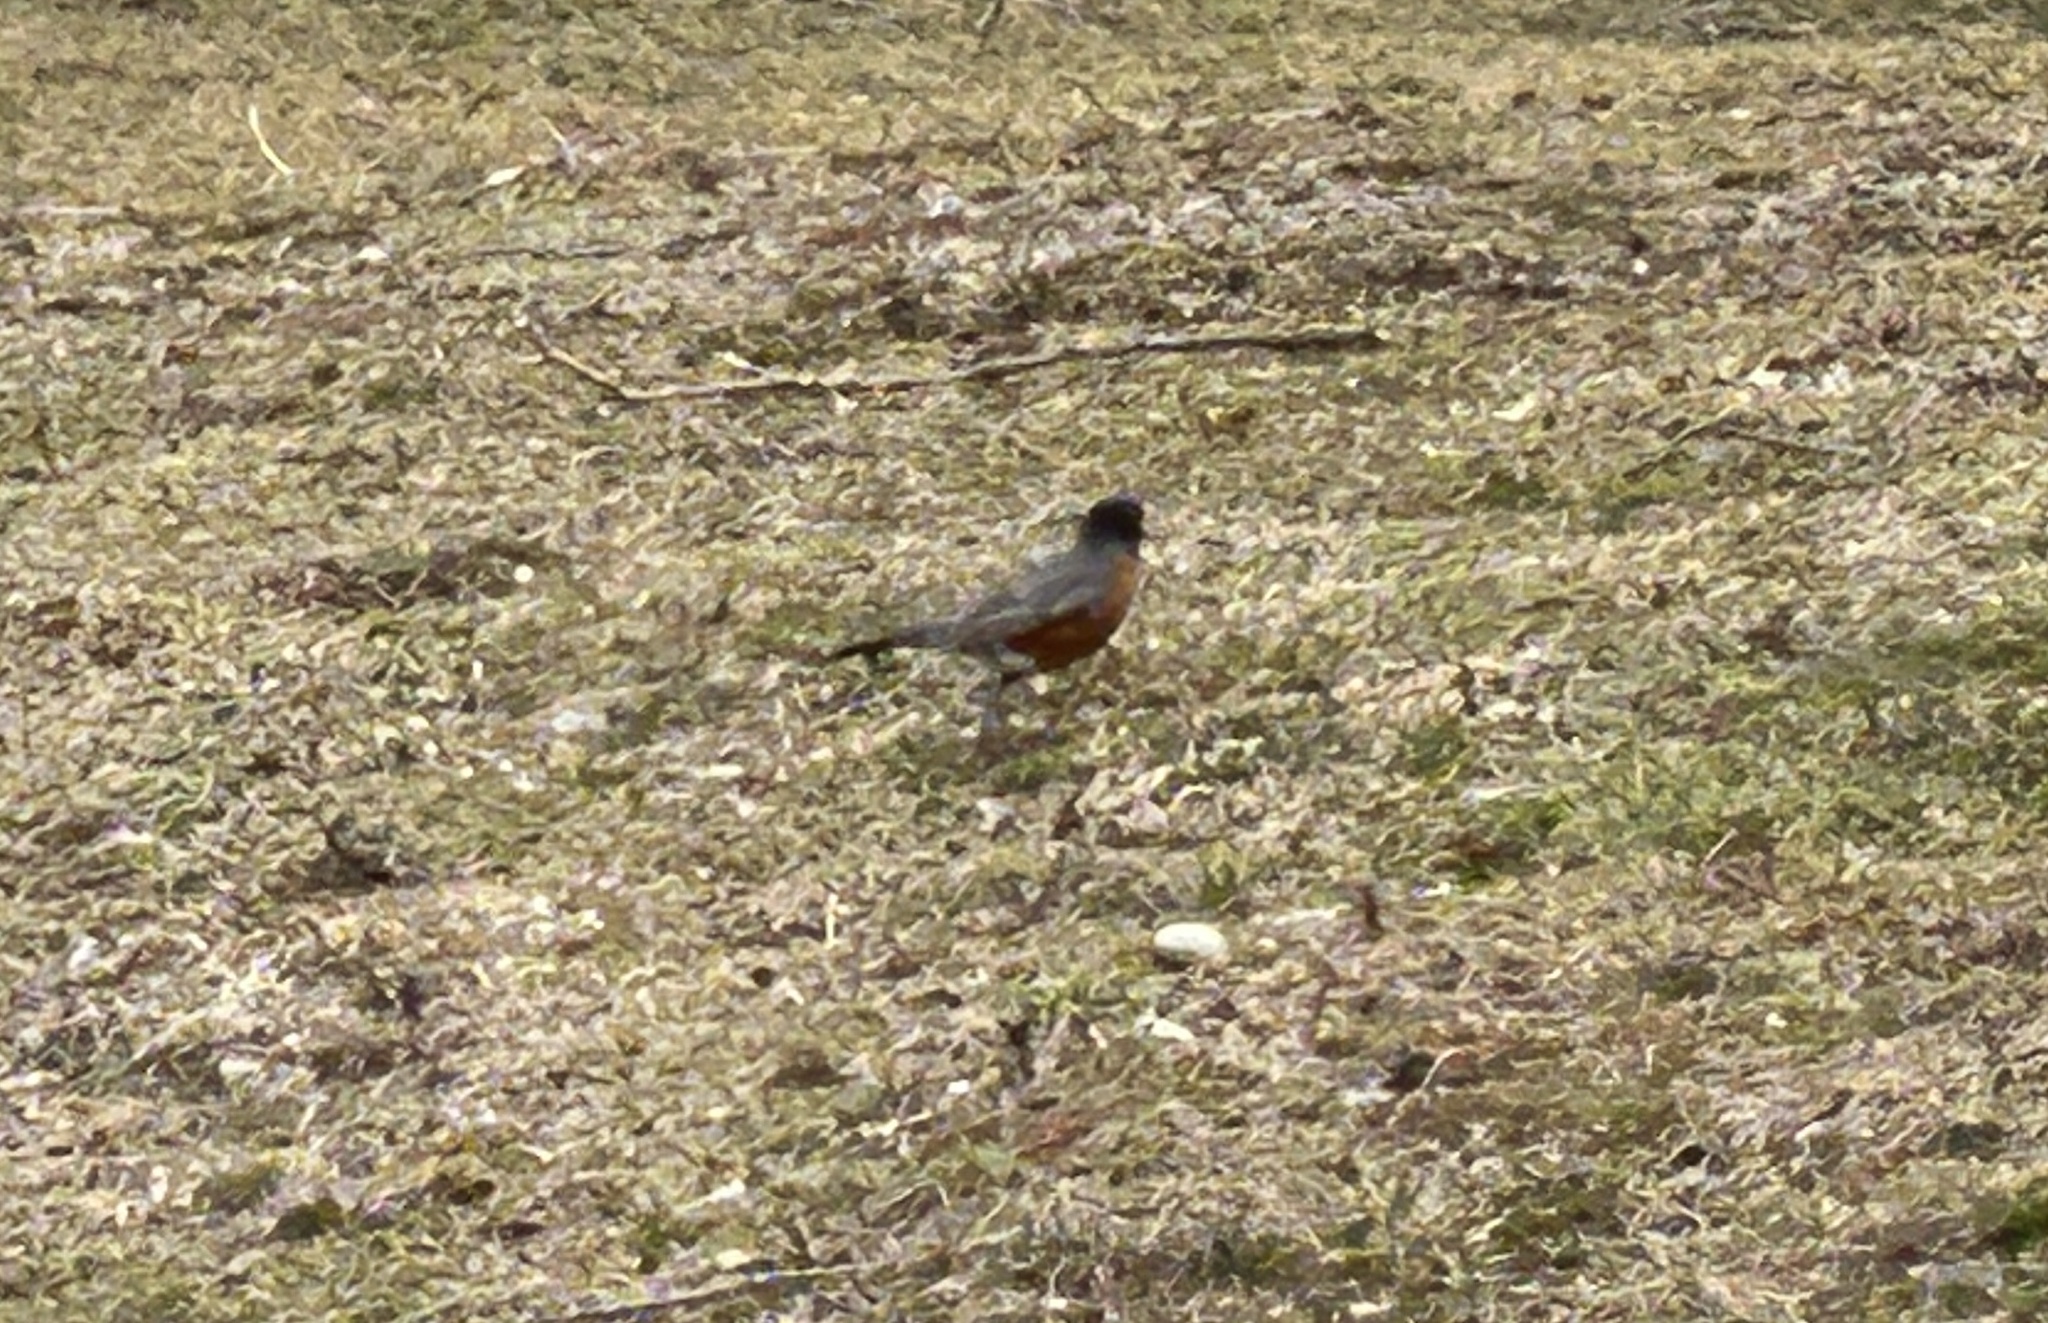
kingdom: Animalia
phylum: Chordata
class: Aves
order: Passeriformes
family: Turdidae
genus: Turdus
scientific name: Turdus migratorius
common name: American robin
